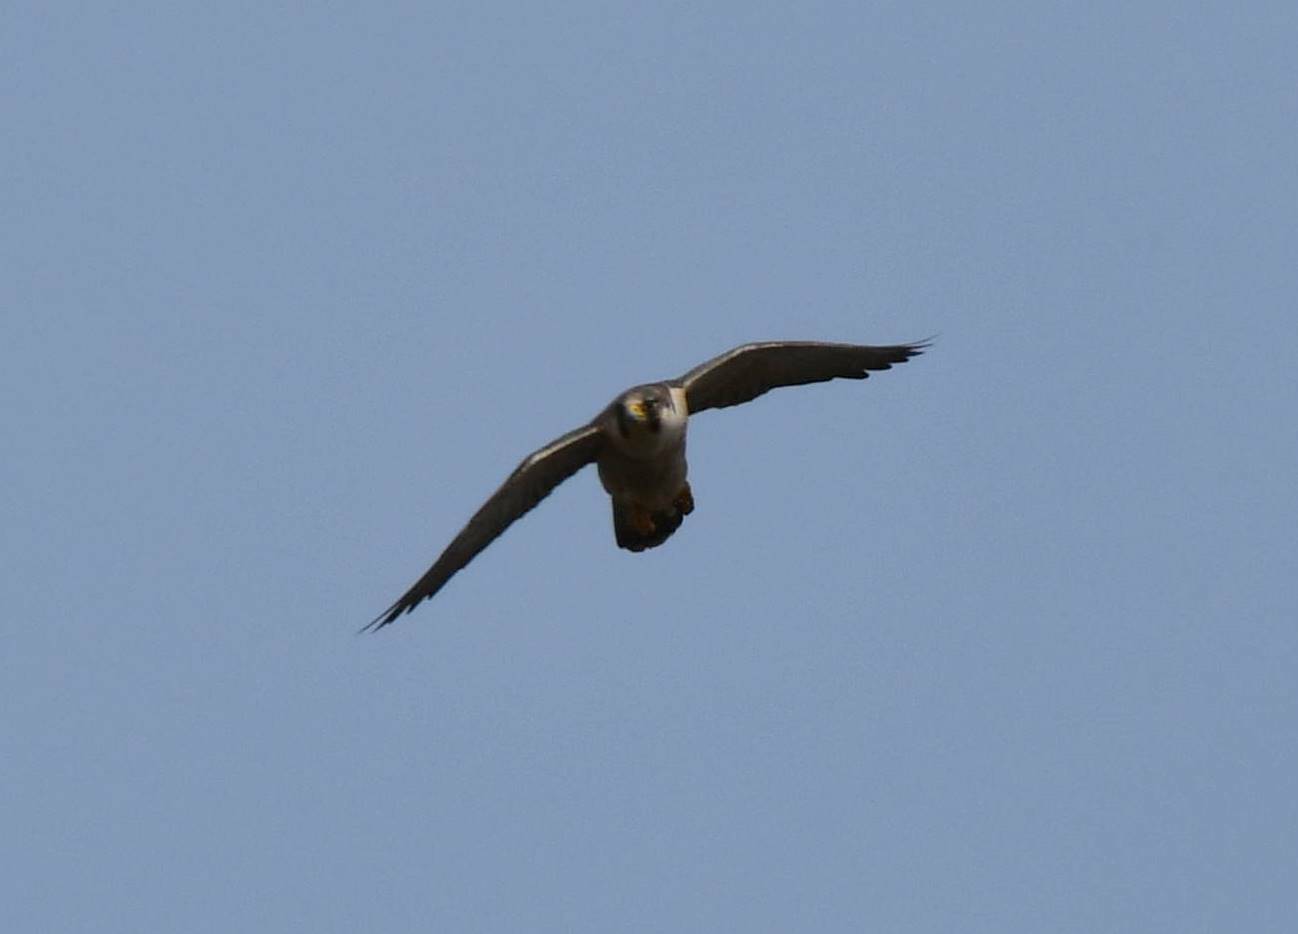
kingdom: Animalia
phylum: Chordata
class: Aves
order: Falconiformes
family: Falconidae
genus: Falco
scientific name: Falco peregrinus
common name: Peregrine falcon
